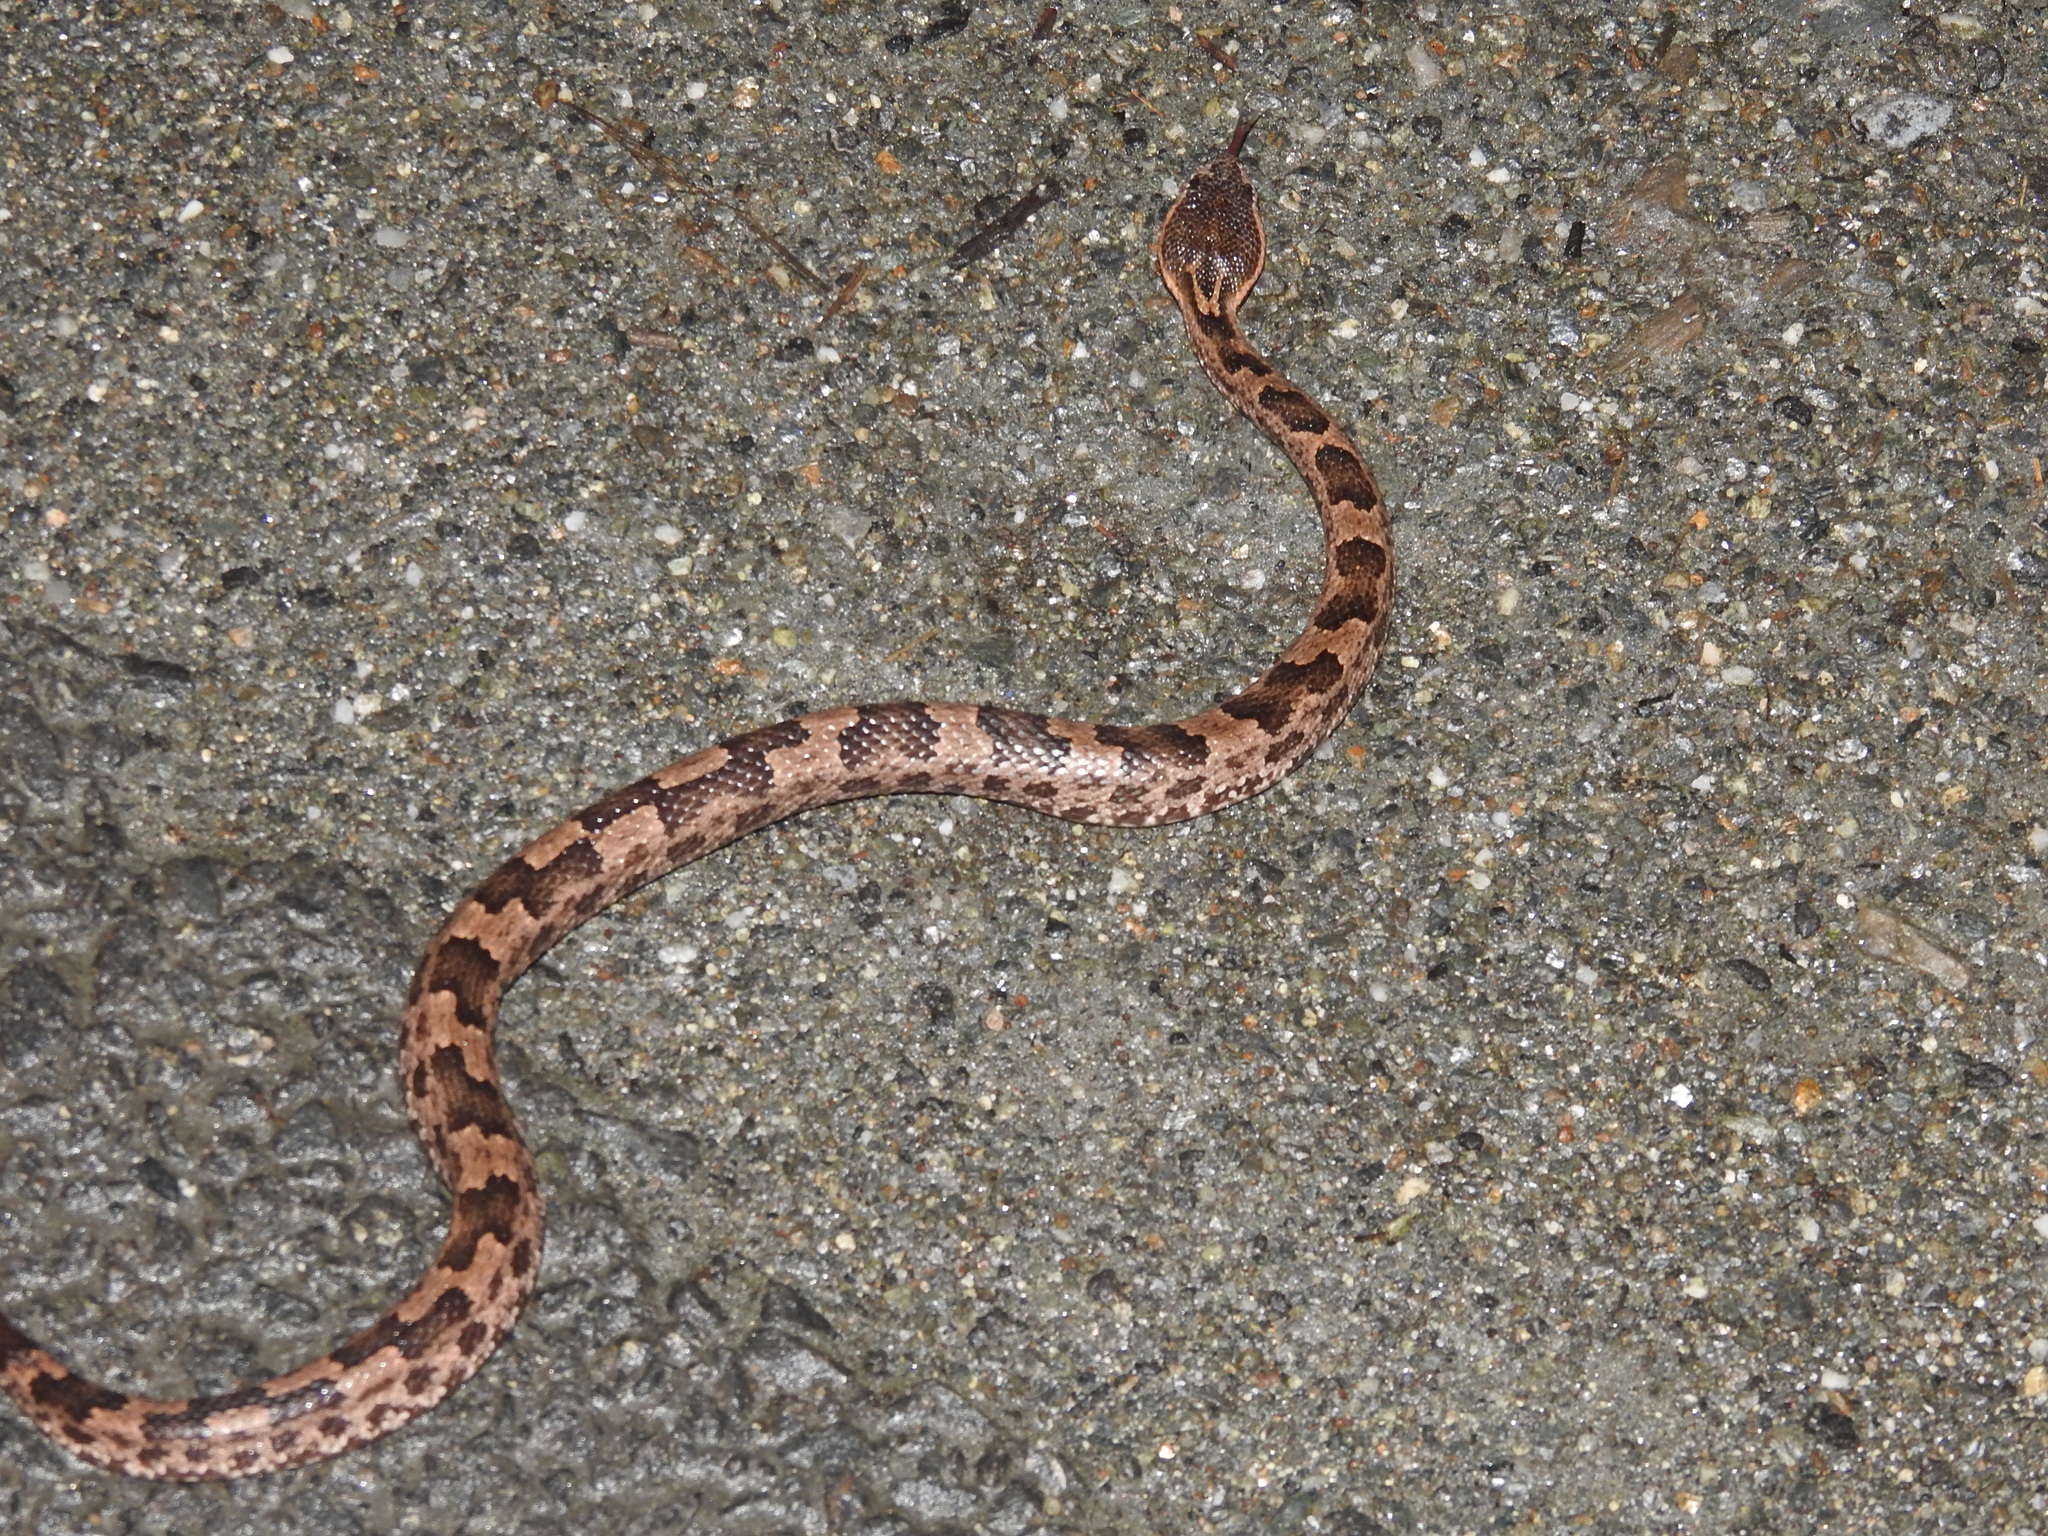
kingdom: Animalia
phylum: Chordata
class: Squamata
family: Viperidae
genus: Ovophis
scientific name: Ovophis monticola
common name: Mountain pit viper
